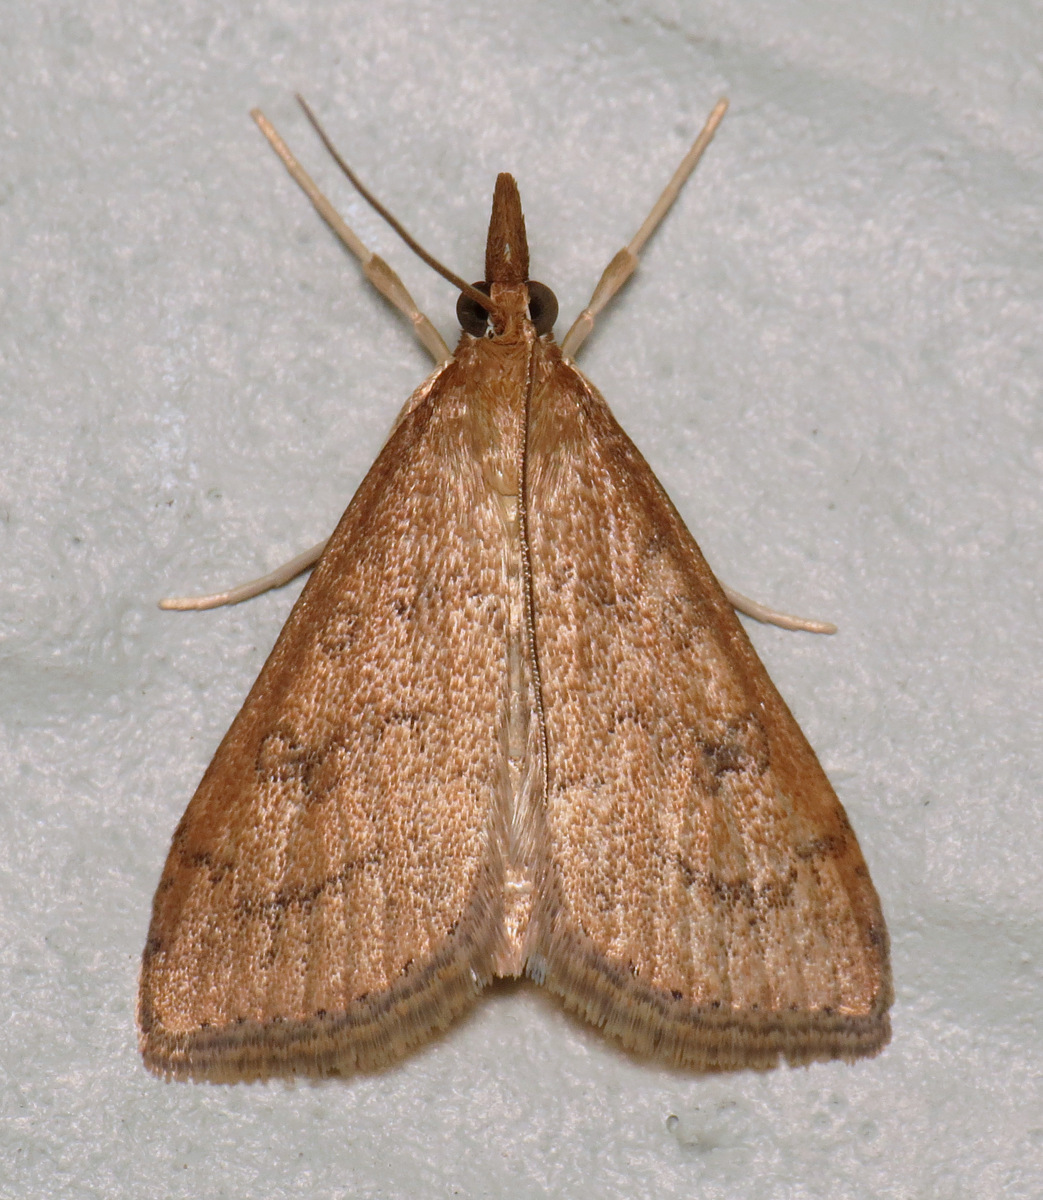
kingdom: Animalia
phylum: Arthropoda
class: Insecta
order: Lepidoptera
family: Crambidae
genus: Udea
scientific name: Udea rubigalis
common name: Celery leaftier moth
